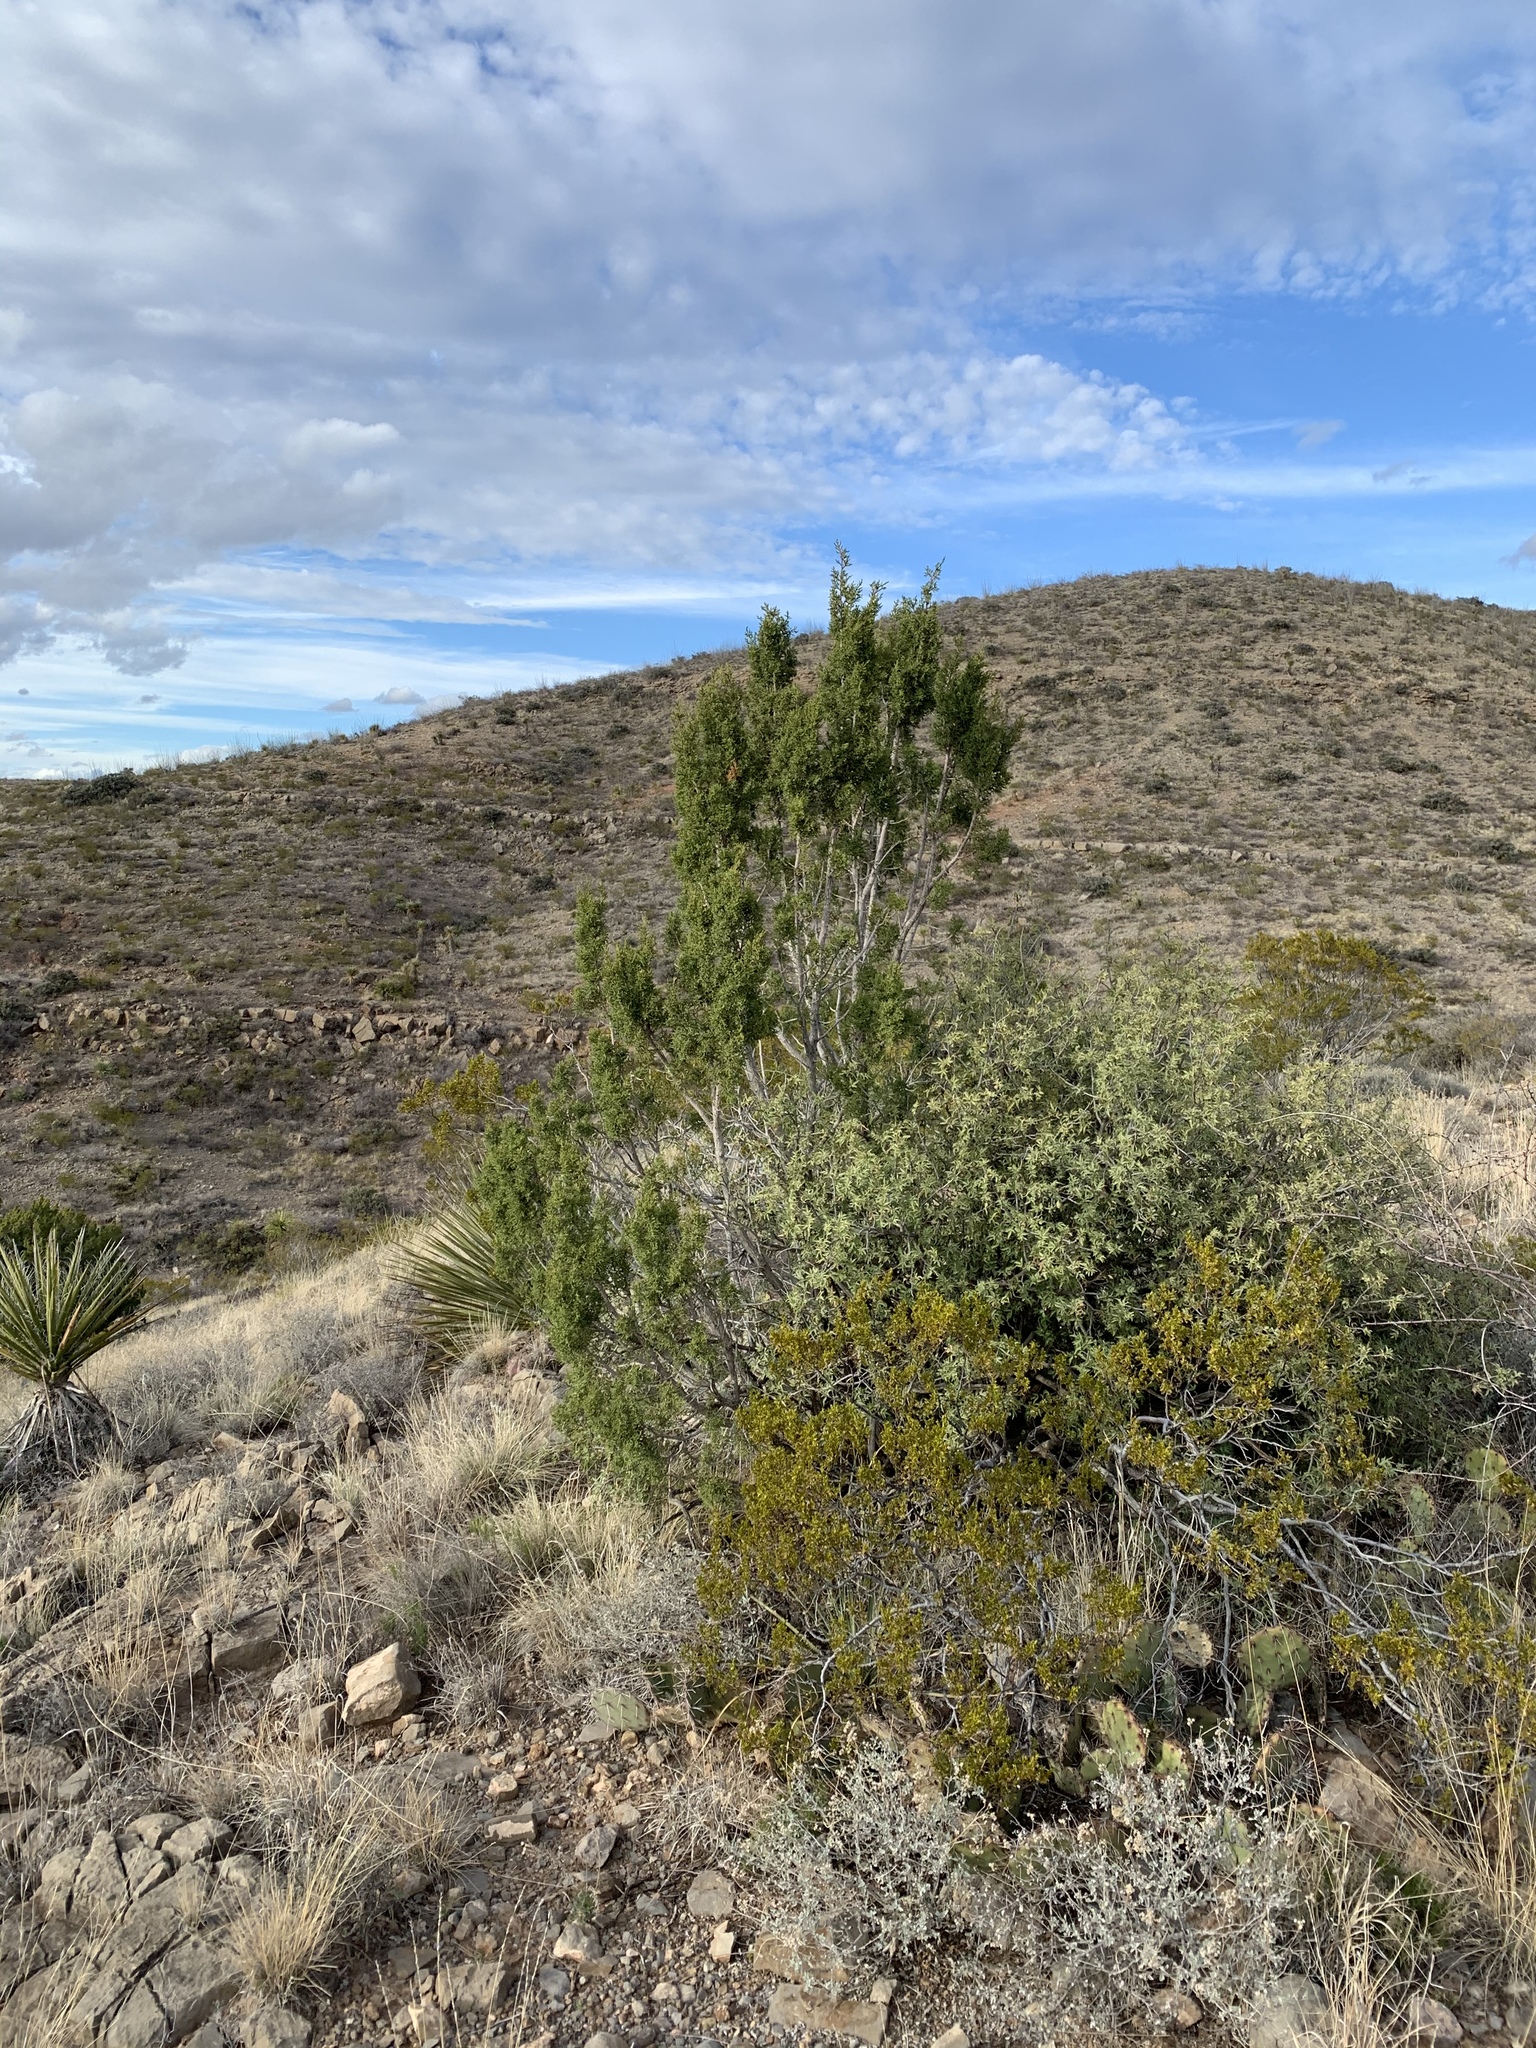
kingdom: Plantae
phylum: Tracheophyta
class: Pinopsida
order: Pinales
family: Cupressaceae
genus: Juniperus
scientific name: Juniperus monosperma
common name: One-seed juniper
